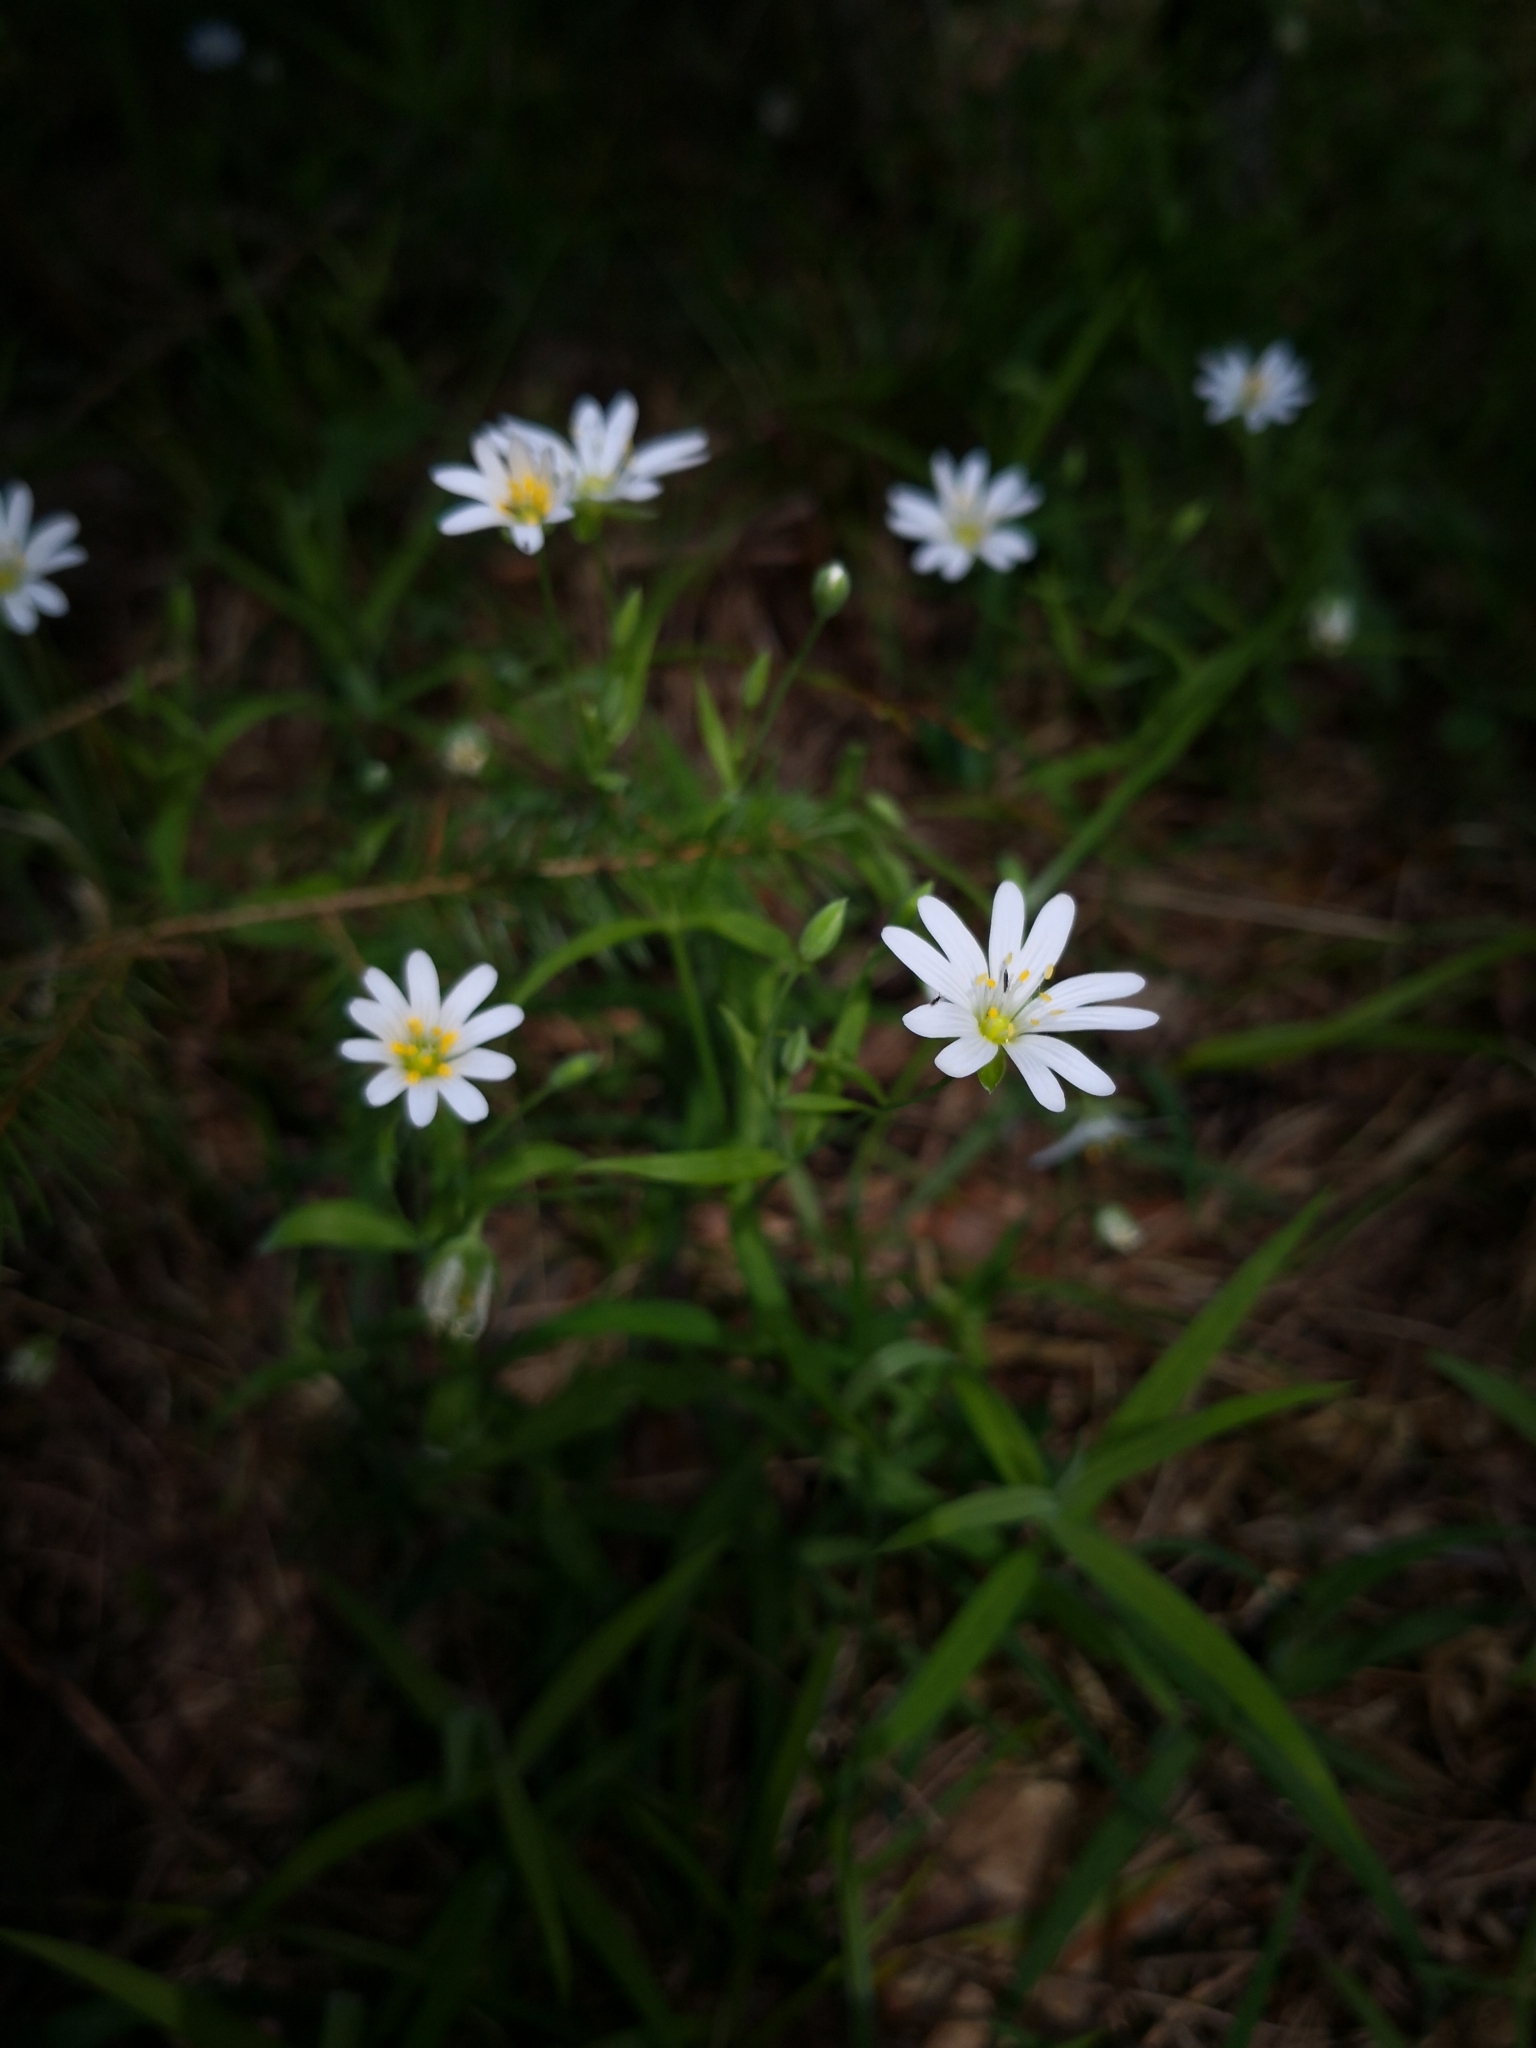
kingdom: Plantae
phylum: Tracheophyta
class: Magnoliopsida
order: Caryophyllales
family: Caryophyllaceae
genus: Rabelera
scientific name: Rabelera holostea
